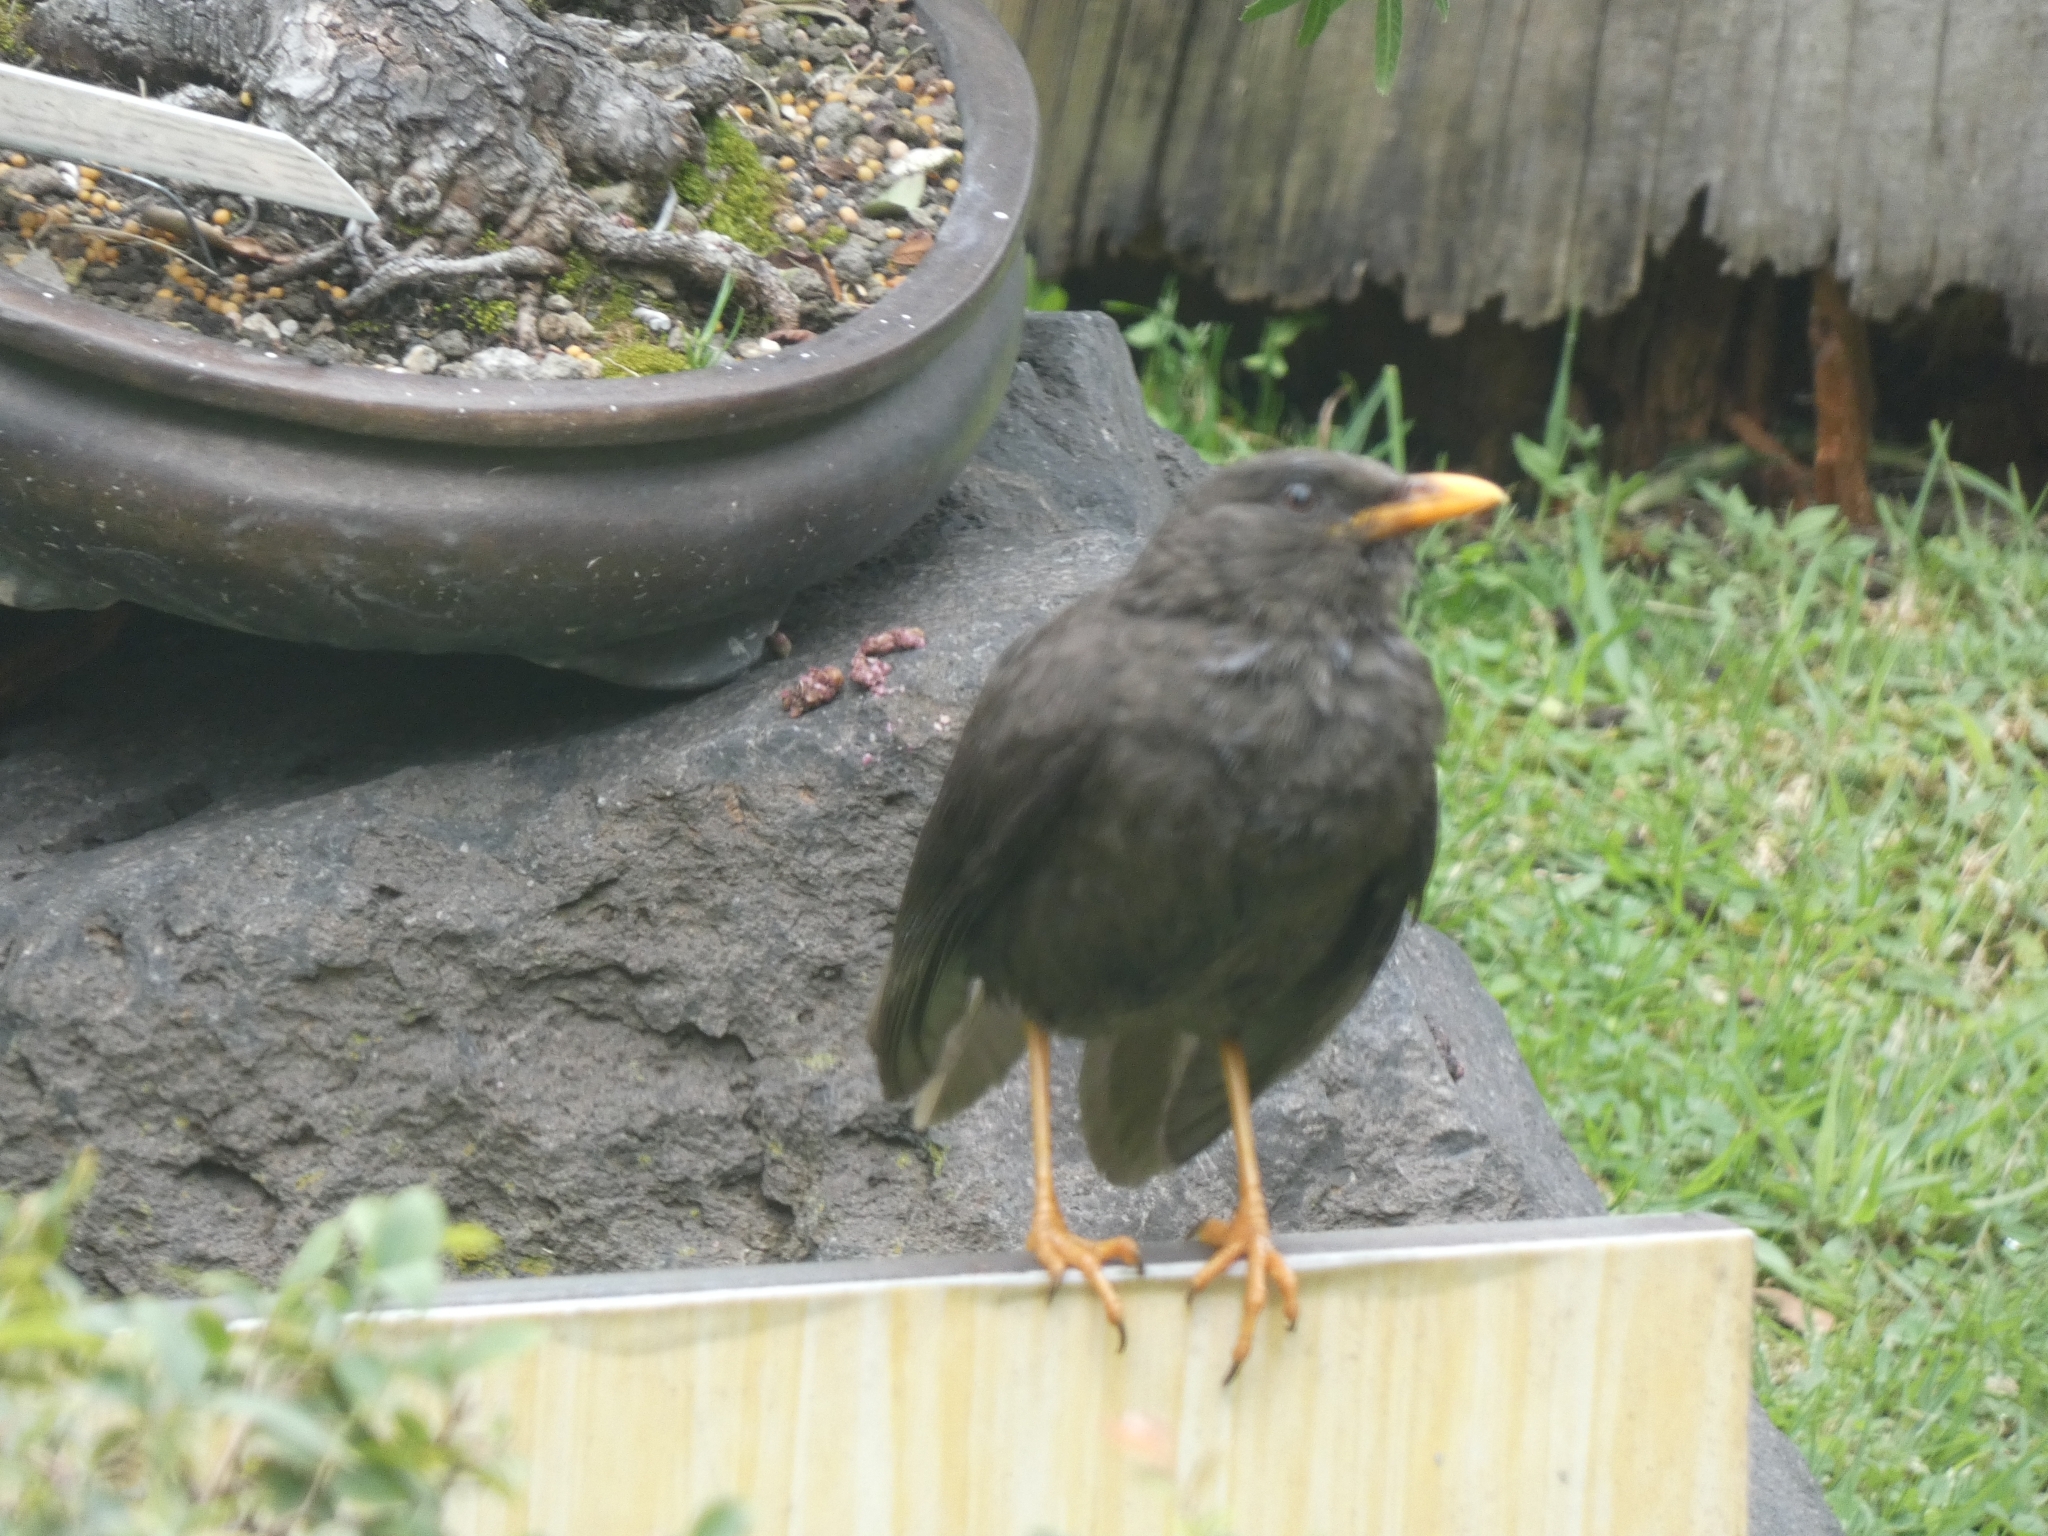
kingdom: Animalia
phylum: Chordata
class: Aves
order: Passeriformes
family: Turdidae
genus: Turdus
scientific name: Turdus fuscater
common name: Great thrush
